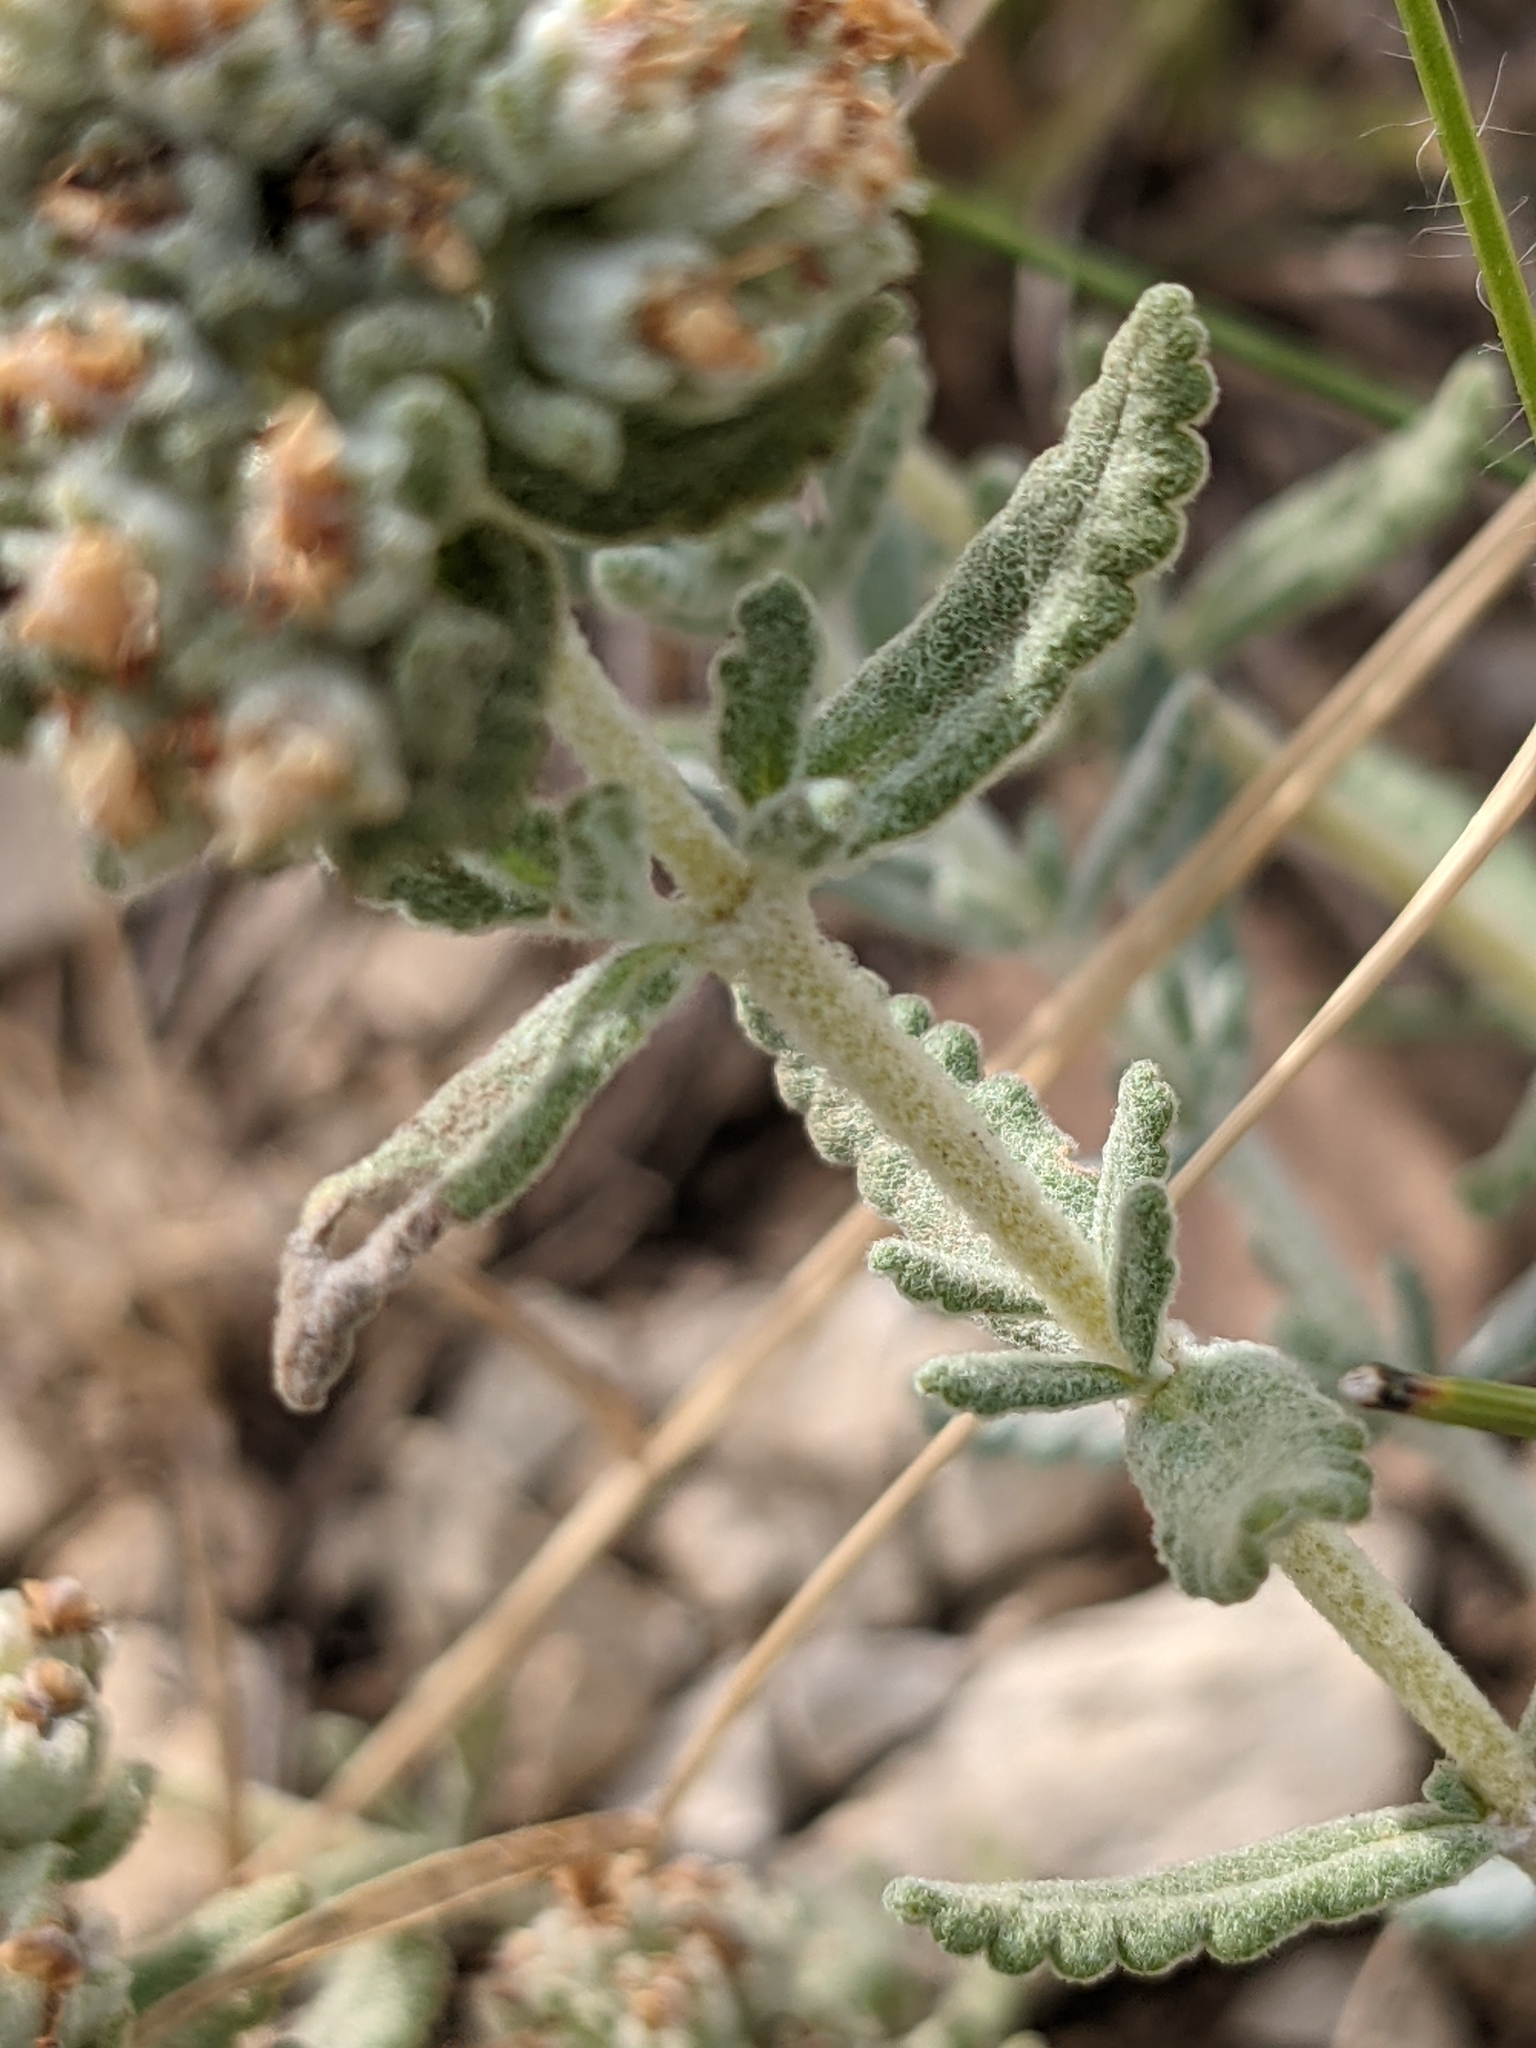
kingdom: Plantae
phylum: Tracheophyta
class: Magnoliopsida
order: Lamiales
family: Lamiaceae
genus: Teucrium
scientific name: Teucrium polium
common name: Poley
